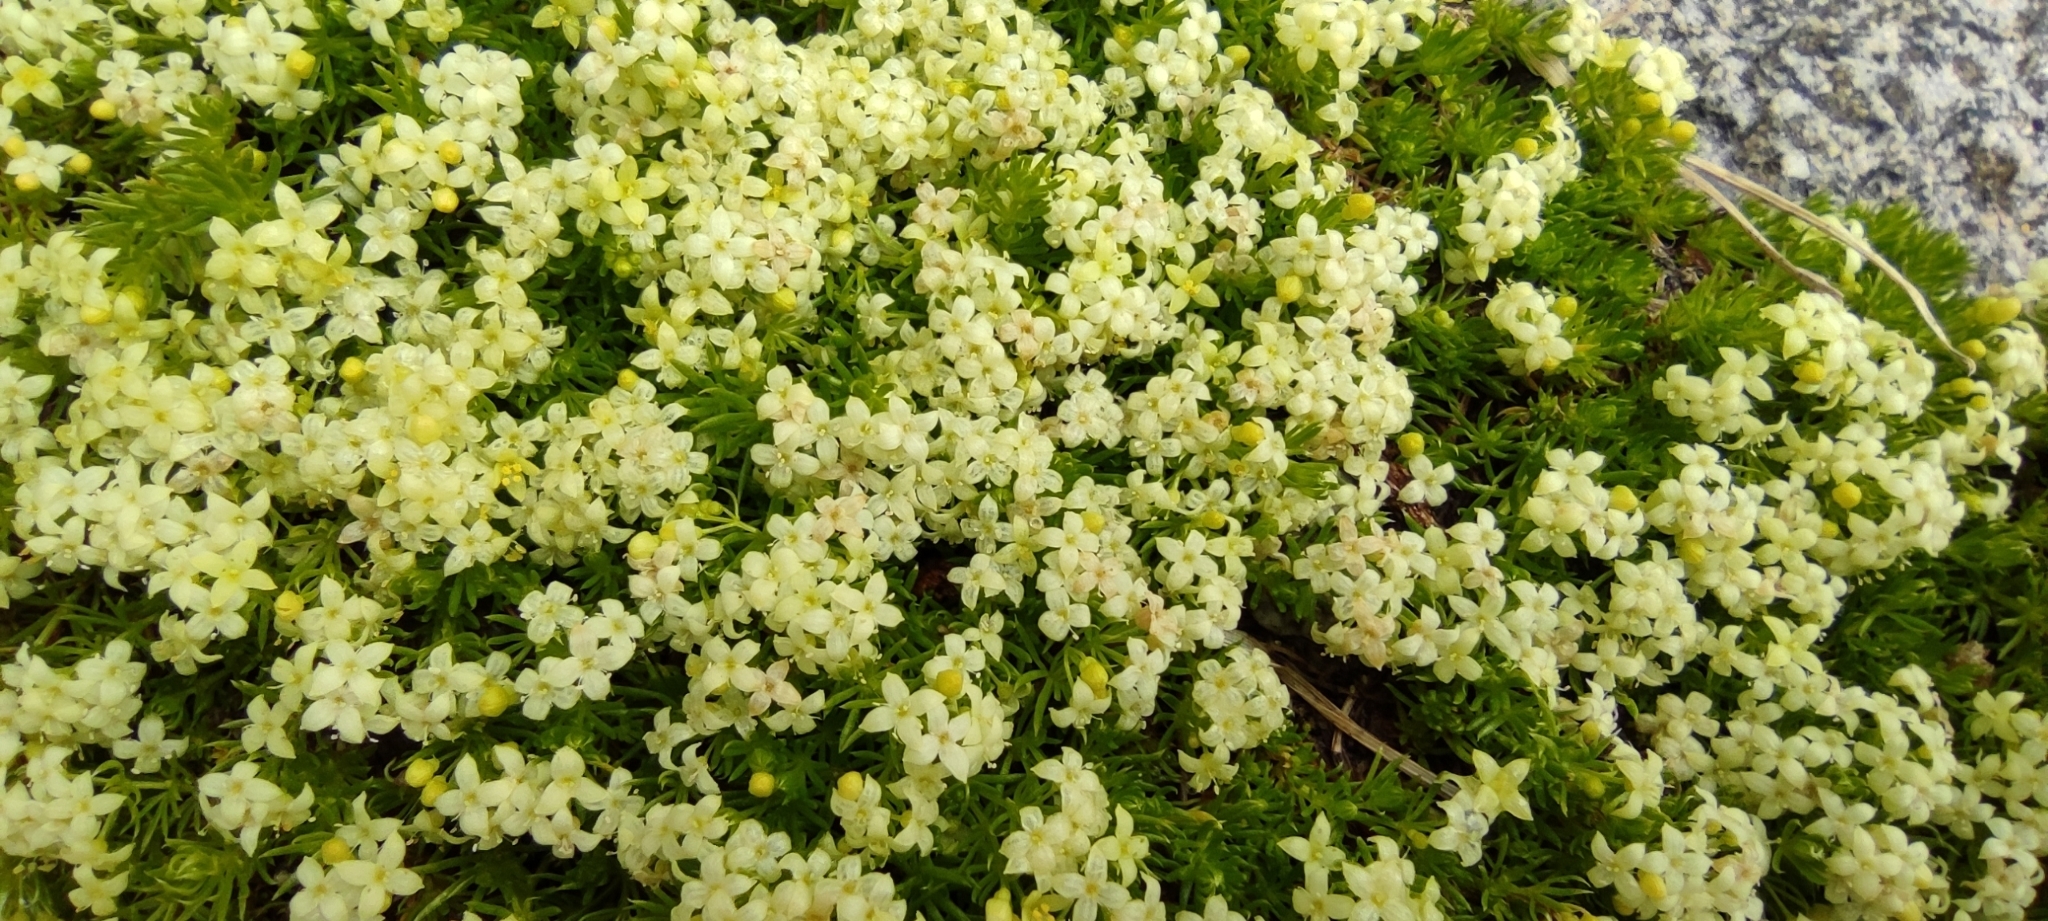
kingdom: Plantae
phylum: Tracheophyta
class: Magnoliopsida
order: Gentianales
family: Rubiaceae
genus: Galium
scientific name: Galium cespitosum
